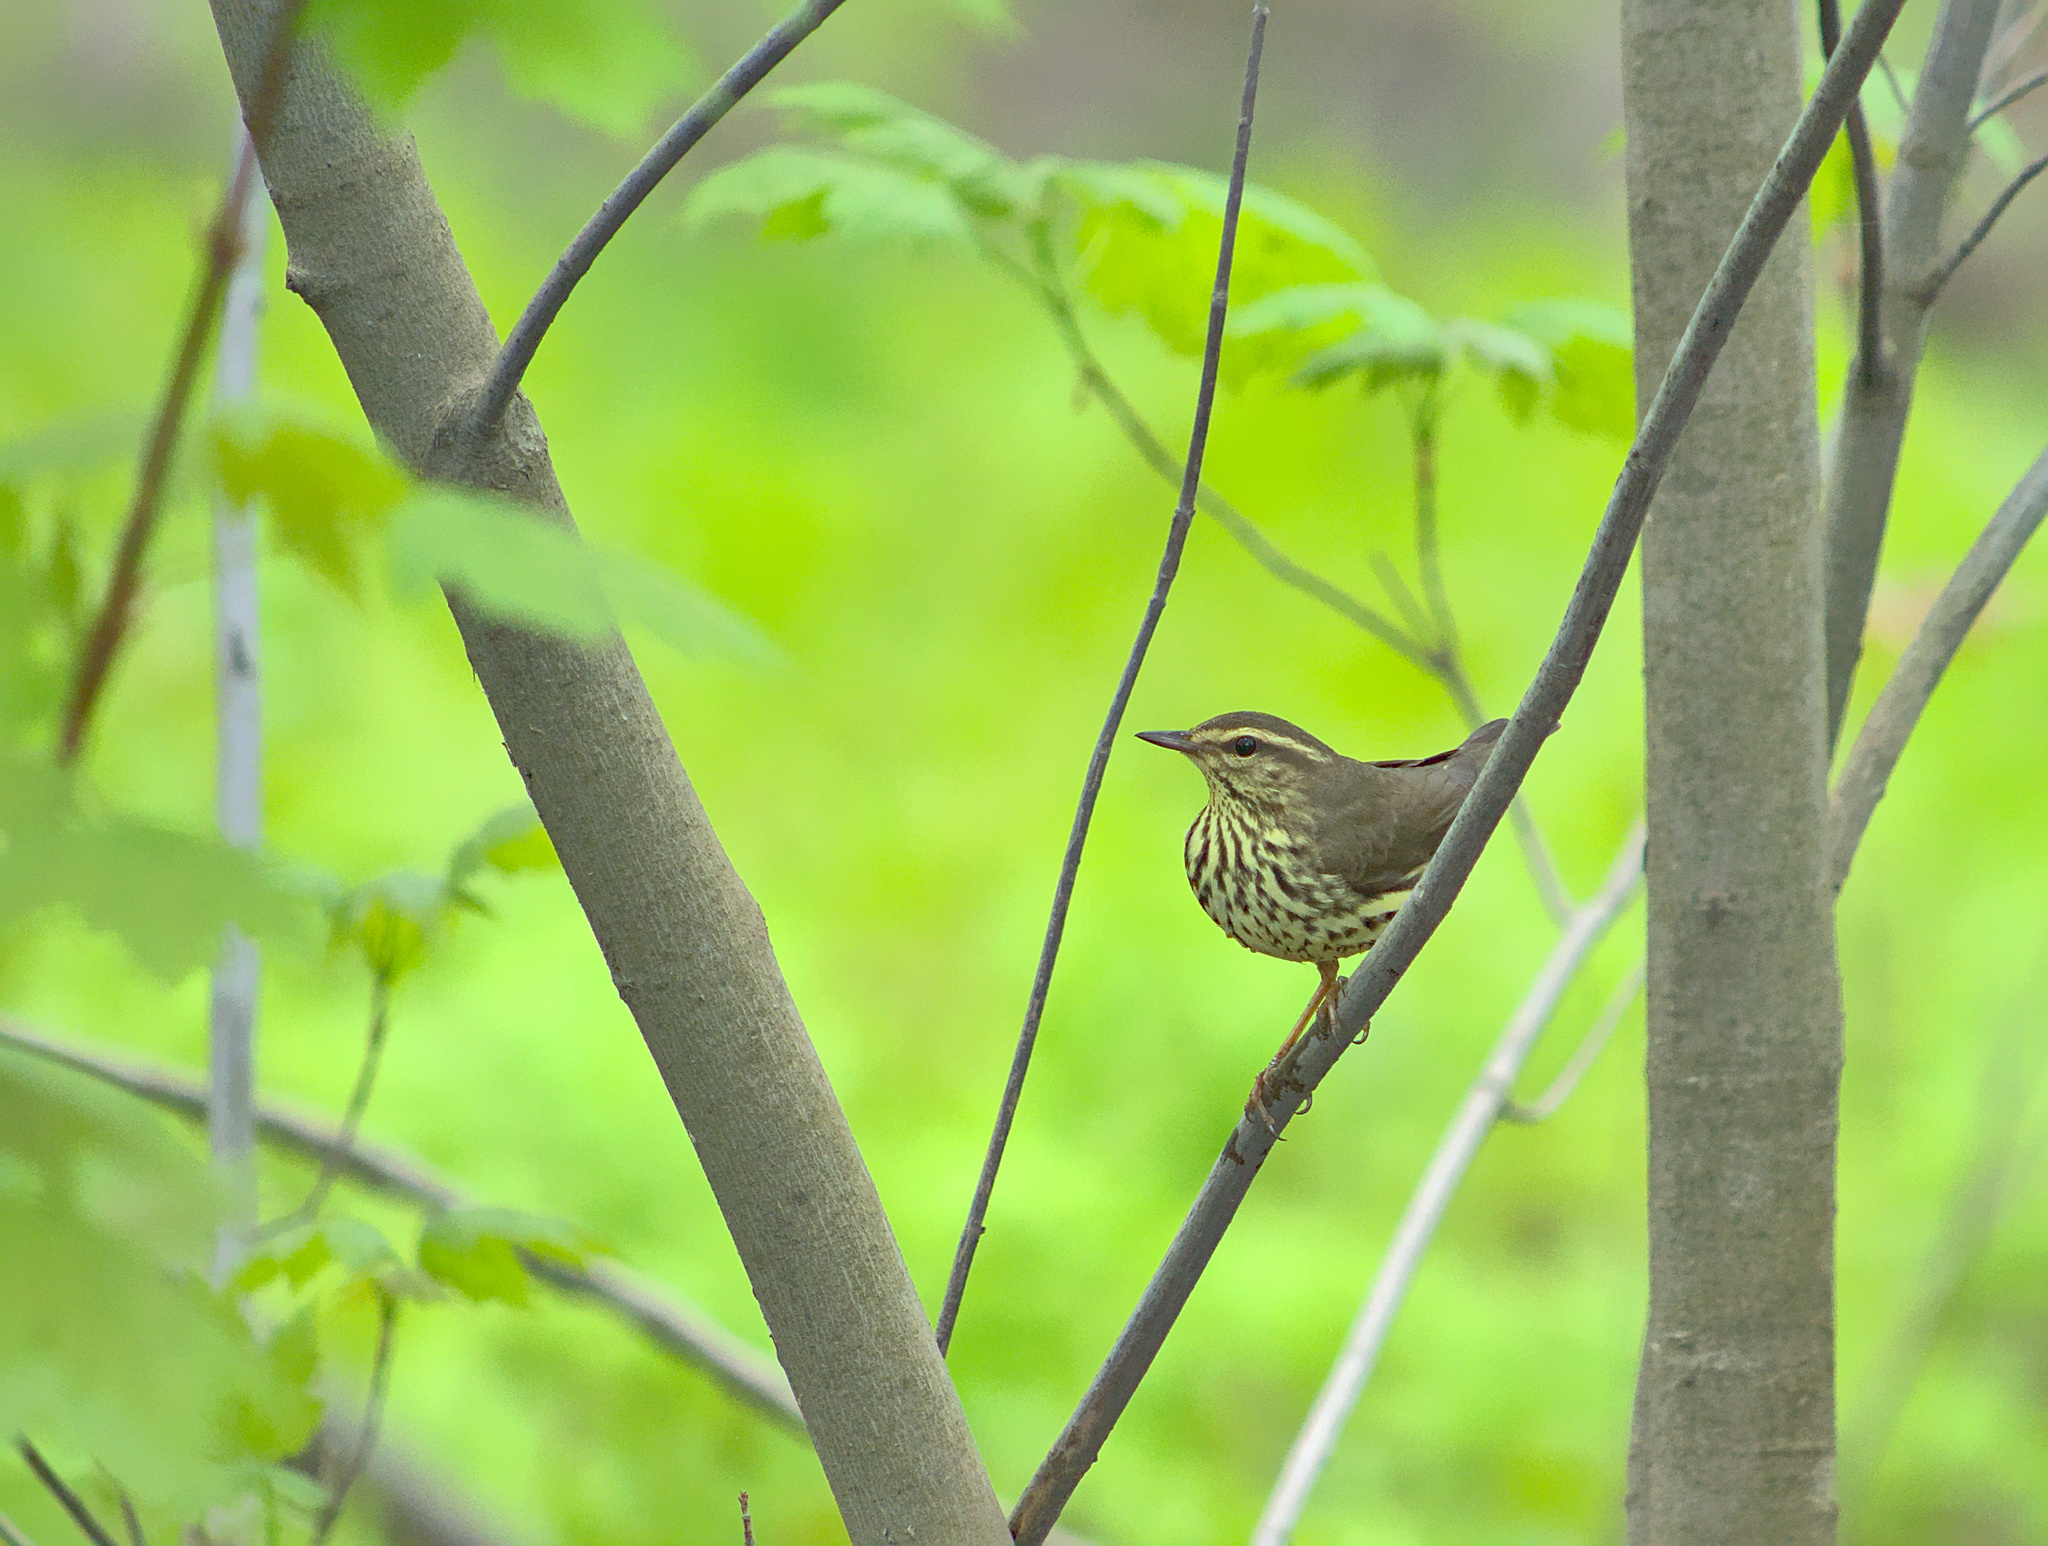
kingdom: Animalia
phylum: Chordata
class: Aves
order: Passeriformes
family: Parulidae
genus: Parkesia
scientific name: Parkesia noveboracensis
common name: Northern waterthrush
